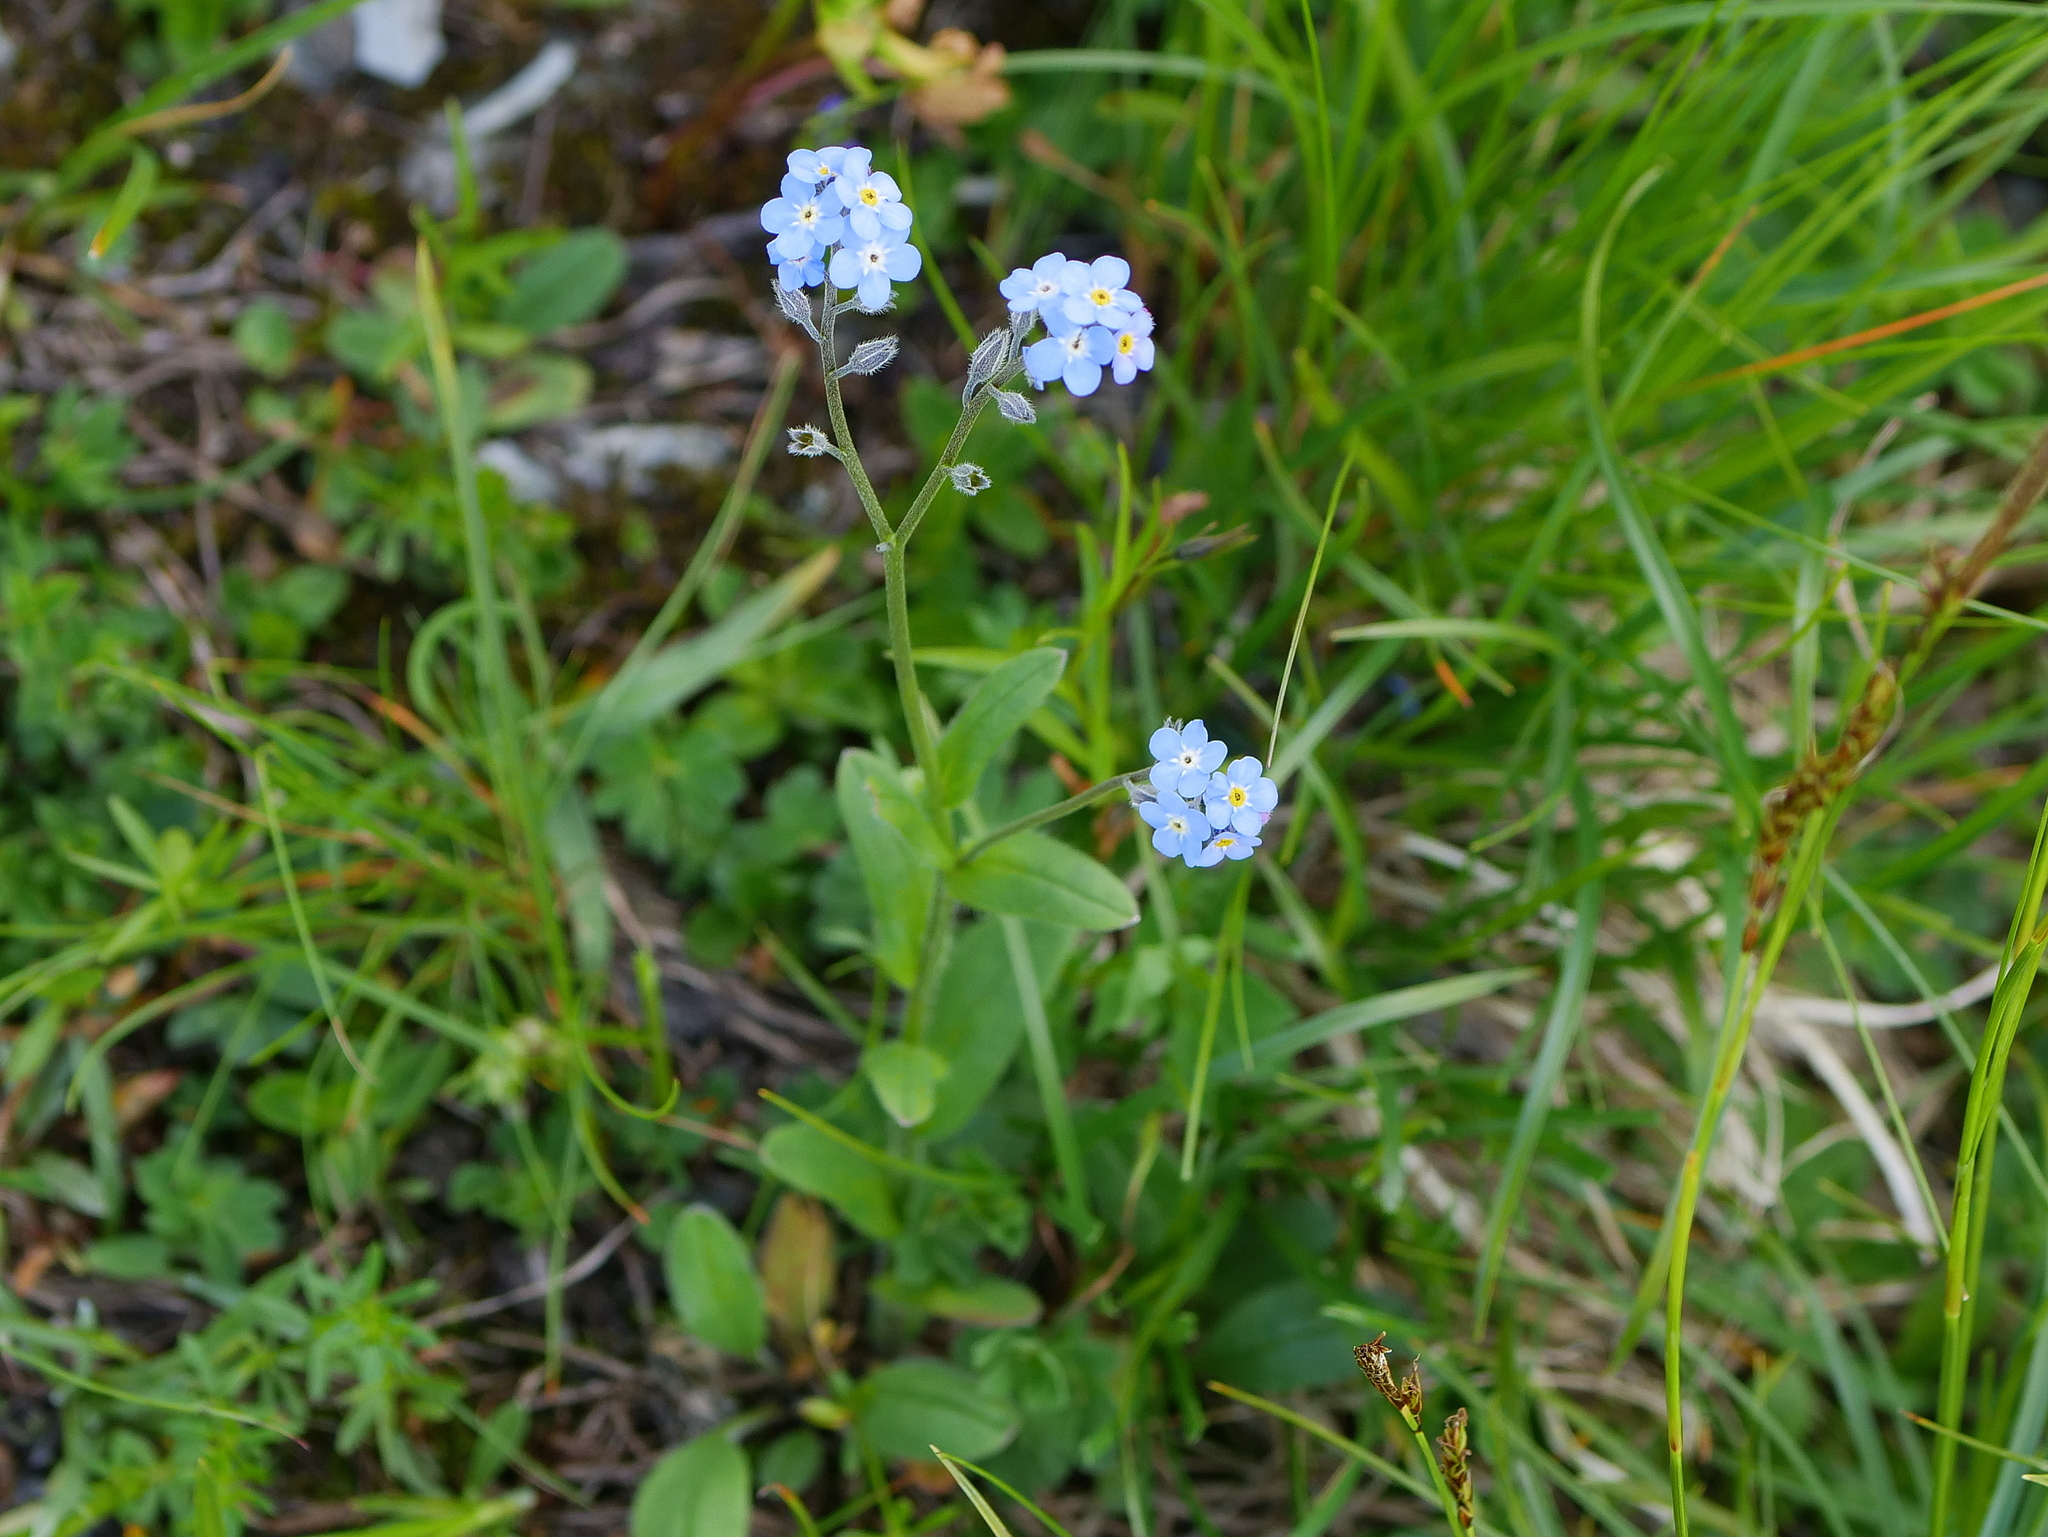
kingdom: Plantae
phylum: Tracheophyta
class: Magnoliopsida
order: Boraginales
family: Boraginaceae
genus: Myosotis
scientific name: Myosotis alpestris
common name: Alpine forget-me-not
